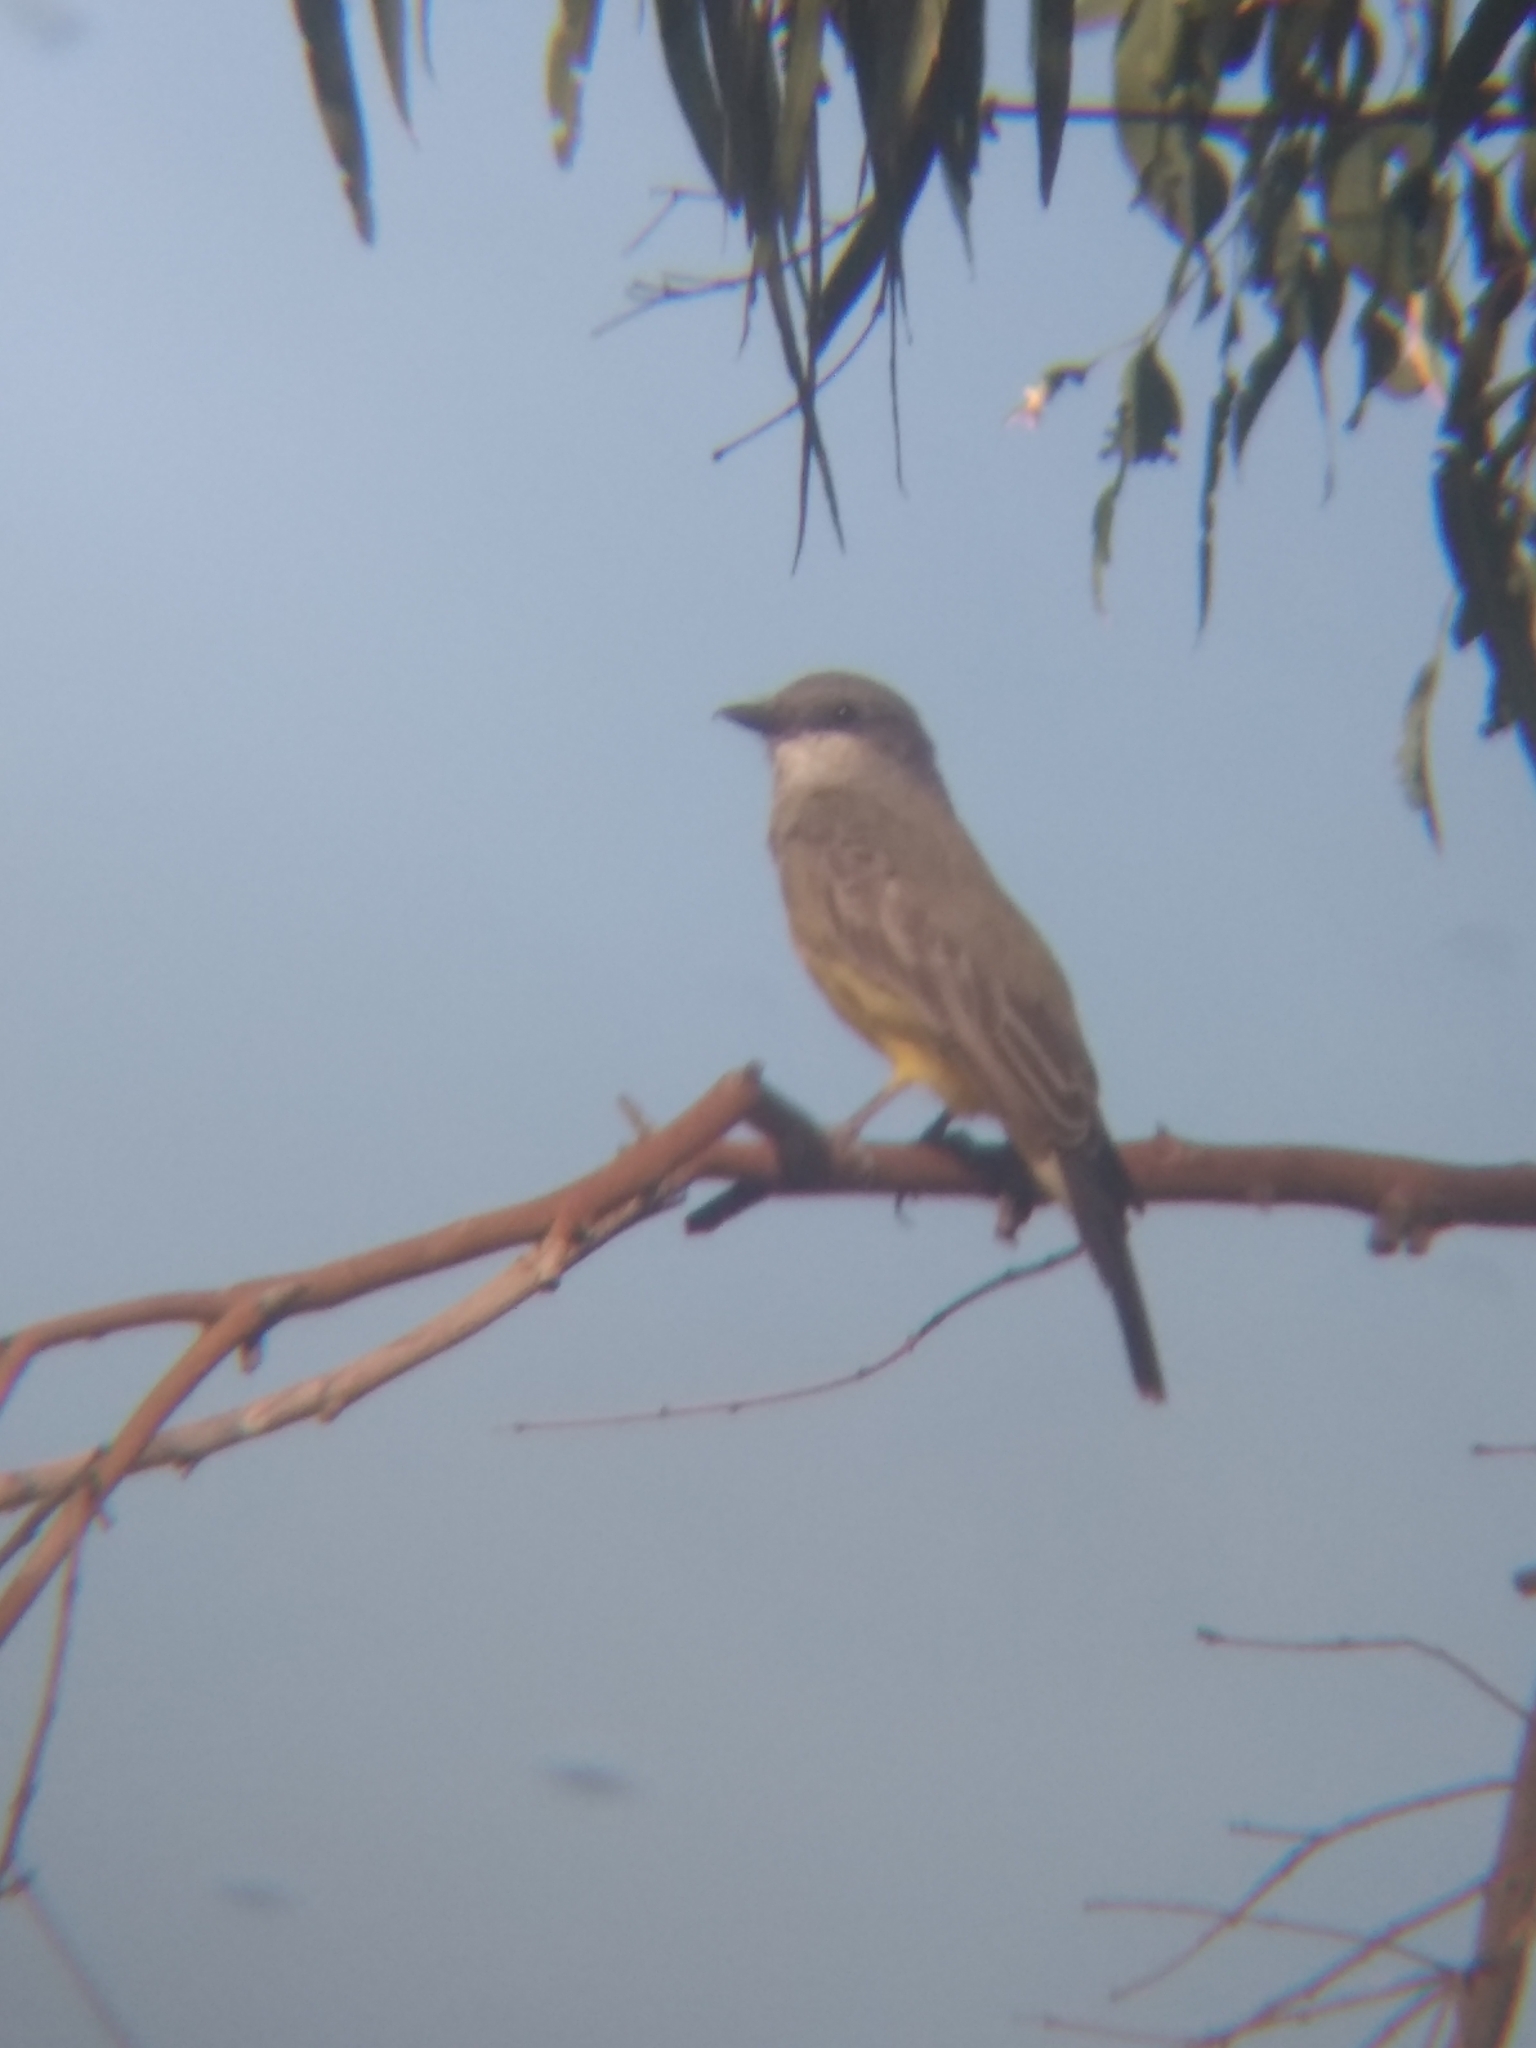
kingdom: Animalia
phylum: Chordata
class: Aves
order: Passeriformes
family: Tyrannidae
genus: Tyrannus
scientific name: Tyrannus vociferans
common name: Cassin's kingbird
